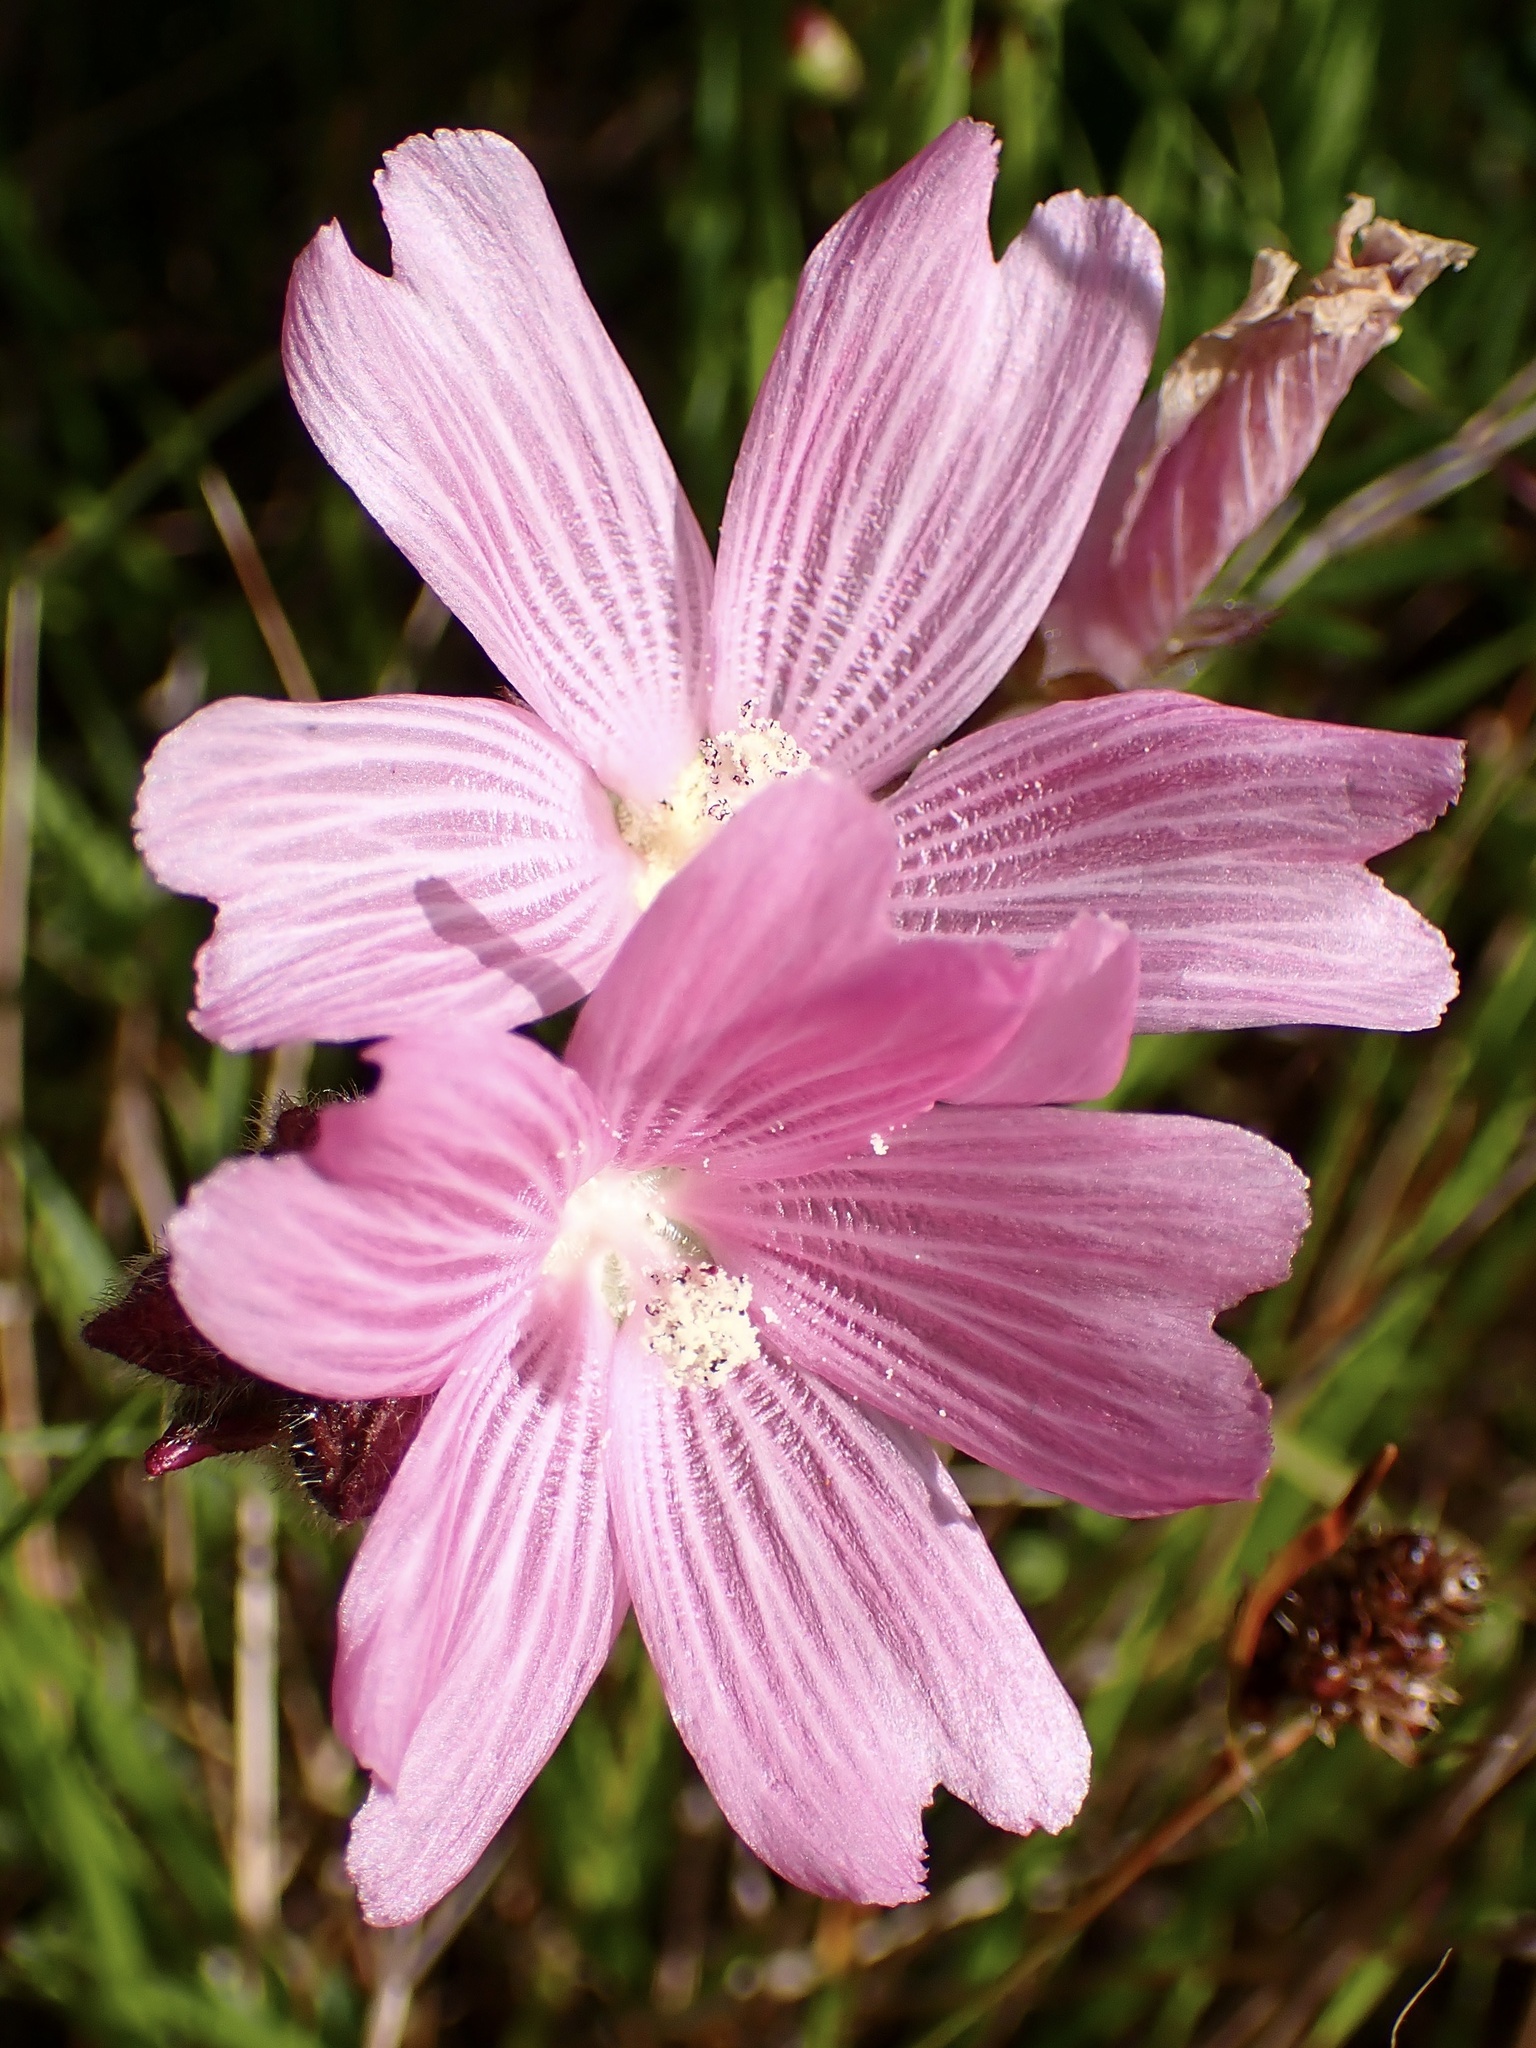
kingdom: Plantae
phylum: Tracheophyta
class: Magnoliopsida
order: Malvales
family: Malvaceae
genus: Sidalcea
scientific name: Sidalcea malviflora
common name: Greek mallow
